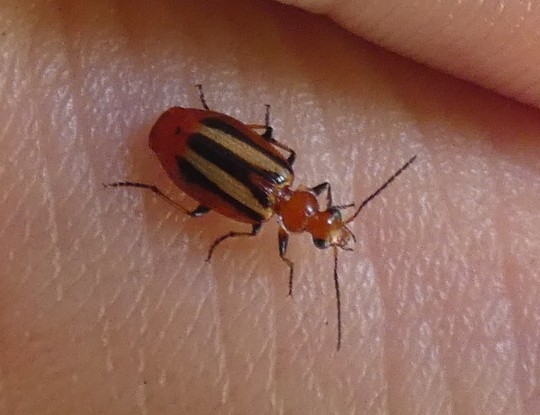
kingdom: Animalia
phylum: Arthropoda
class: Insecta
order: Coleoptera
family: Carabidae
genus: Lebia
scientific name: Lebia vittata
